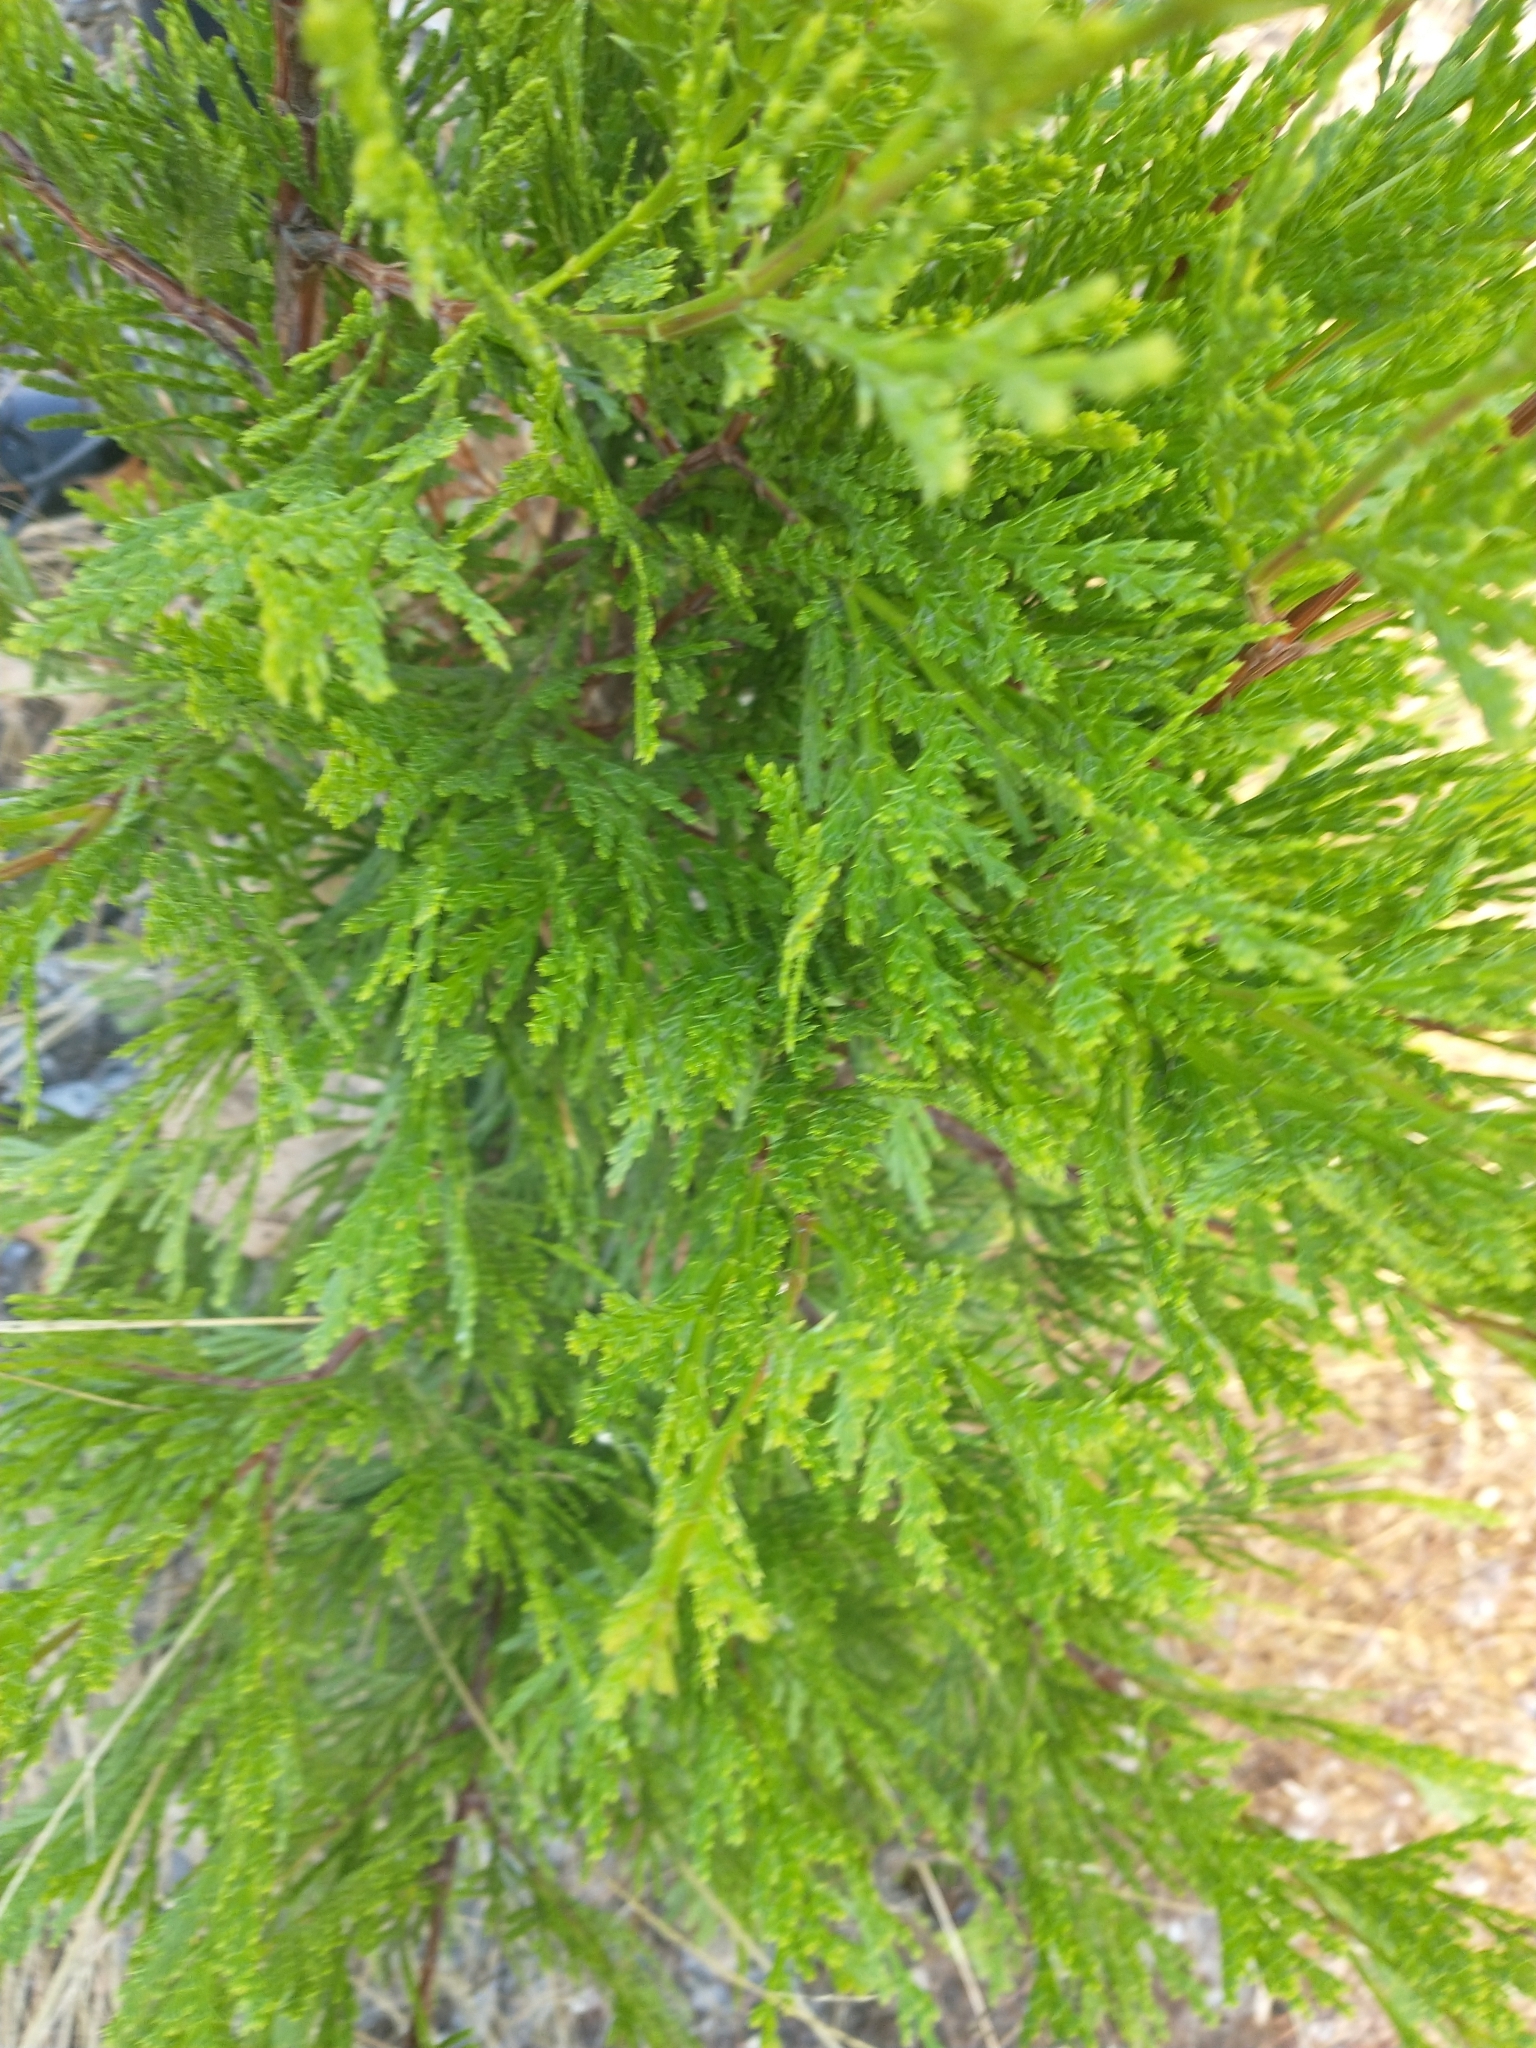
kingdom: Plantae
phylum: Tracheophyta
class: Pinopsida
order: Pinales
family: Cupressaceae
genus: Calocedrus
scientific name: Calocedrus decurrens
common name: Californian incense-cedar
